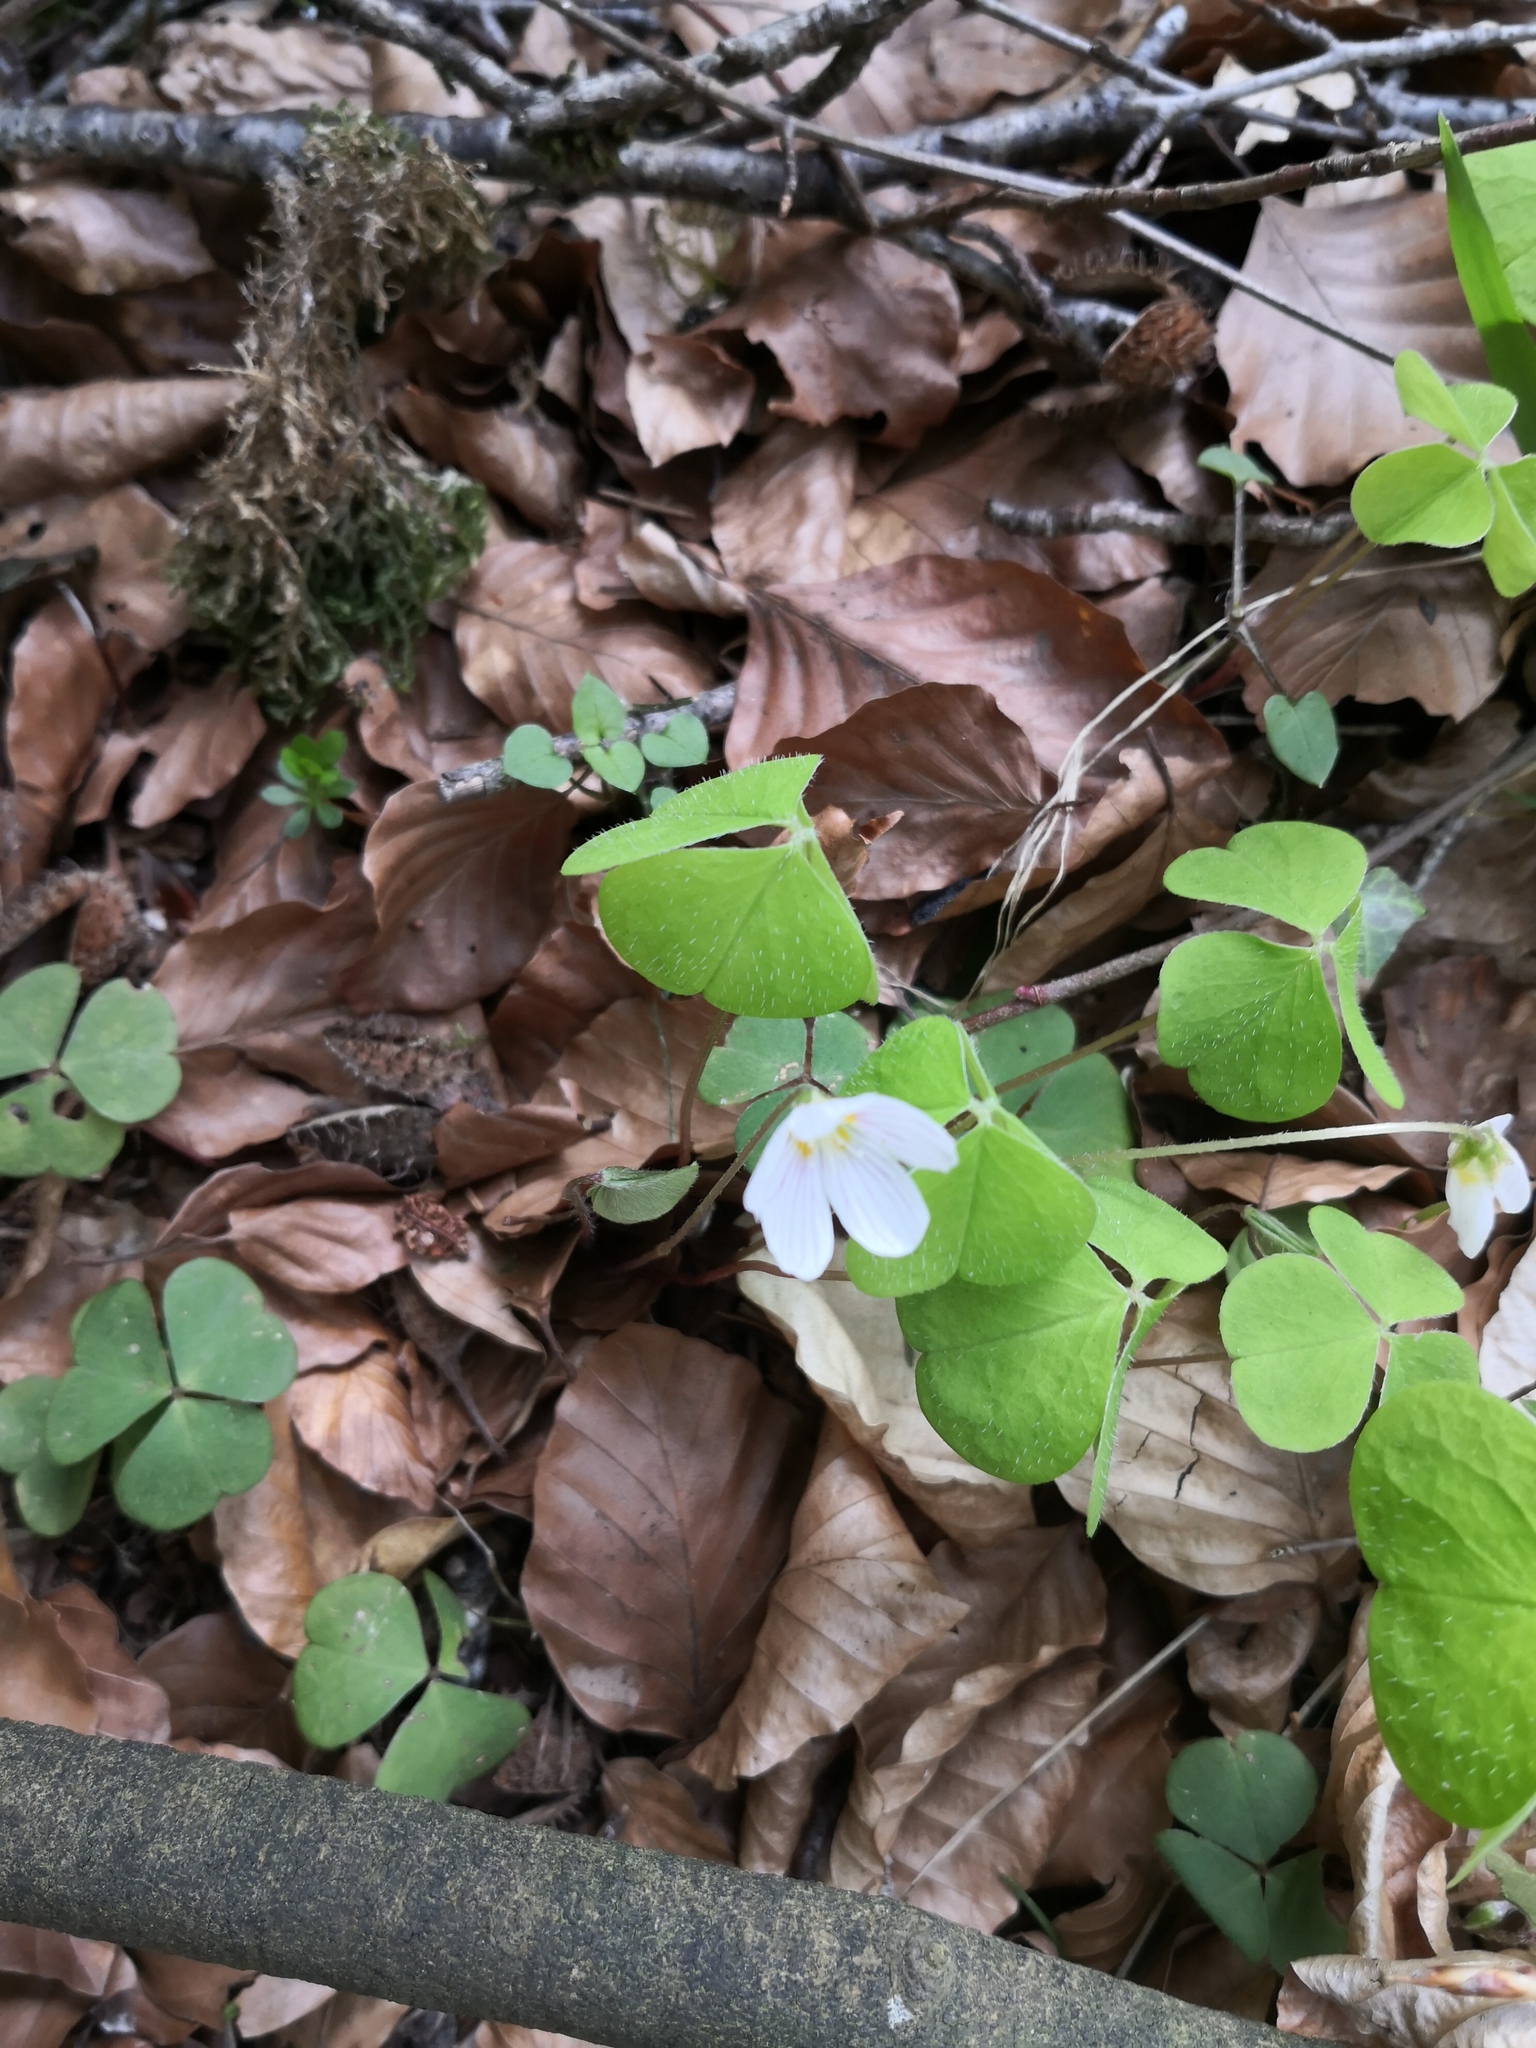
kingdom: Plantae
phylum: Tracheophyta
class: Magnoliopsida
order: Oxalidales
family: Oxalidaceae
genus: Oxalis
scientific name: Oxalis acetosella
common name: Wood-sorrel
